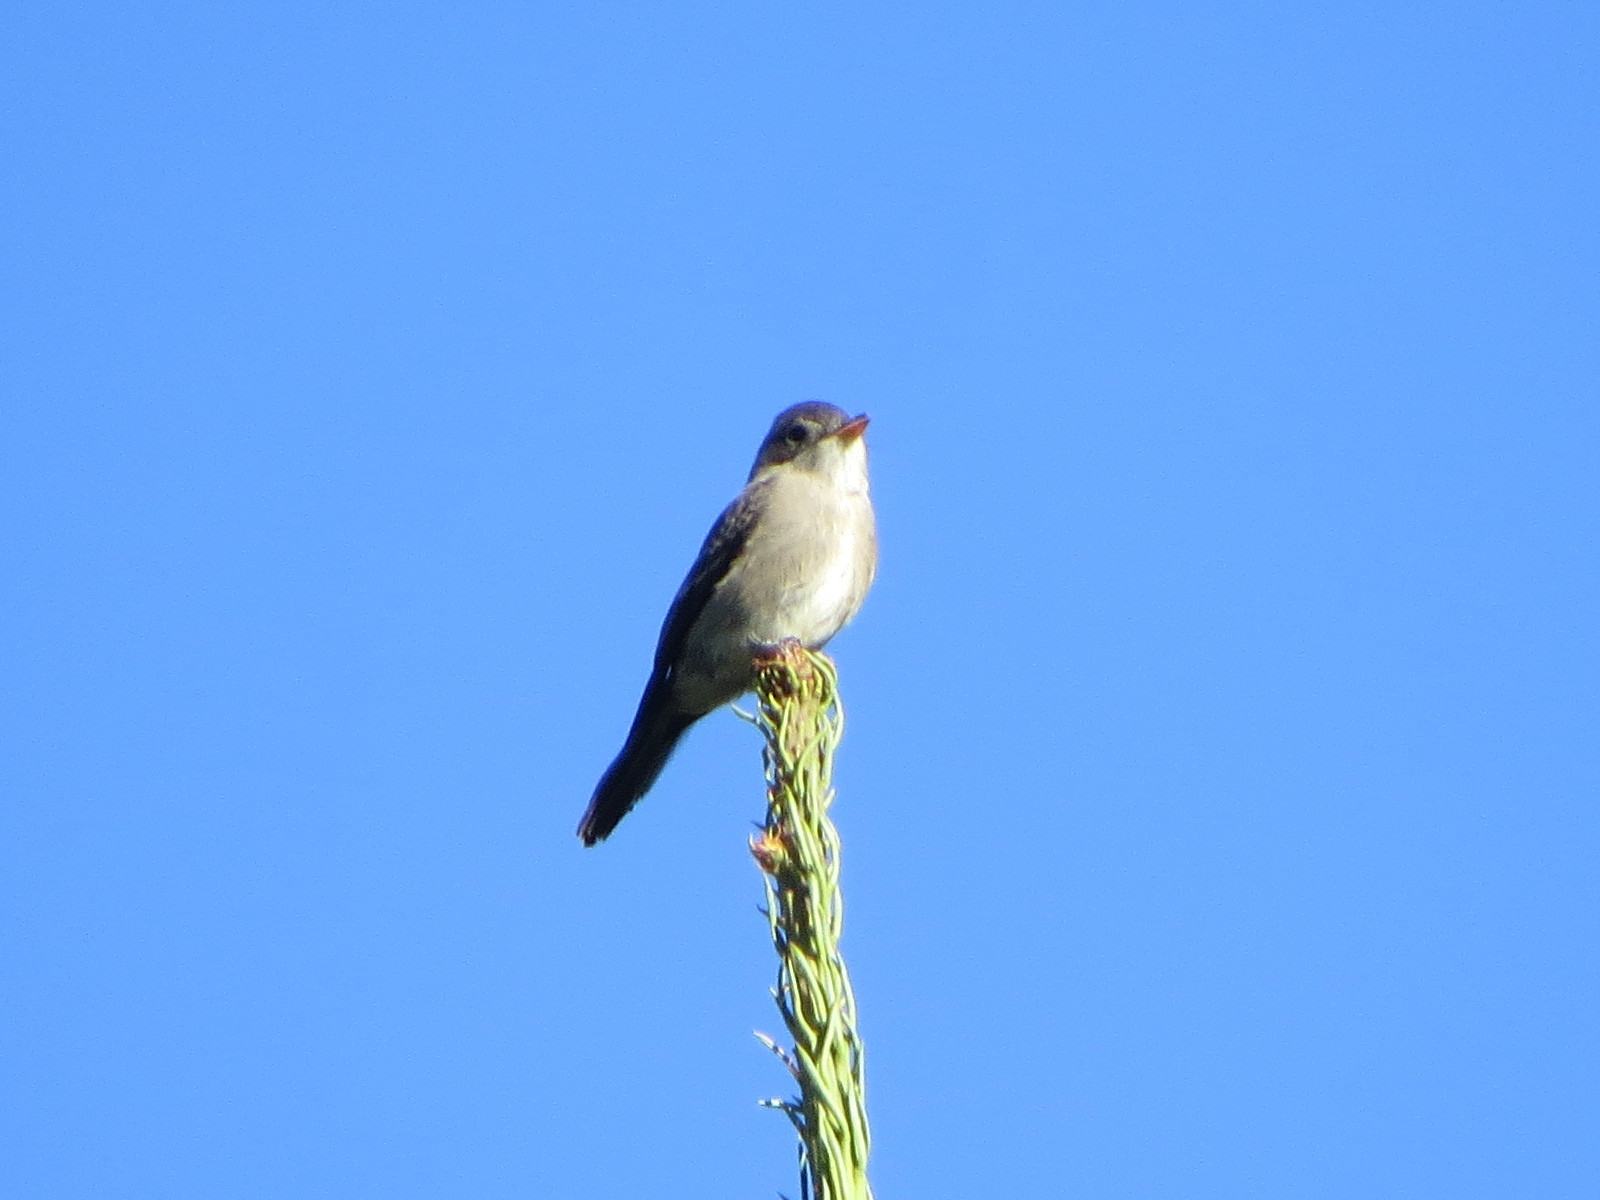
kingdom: Animalia
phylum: Chordata
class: Aves
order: Passeriformes
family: Tyrannidae
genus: Contopus
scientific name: Contopus sordidulus
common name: Western wood-pewee
